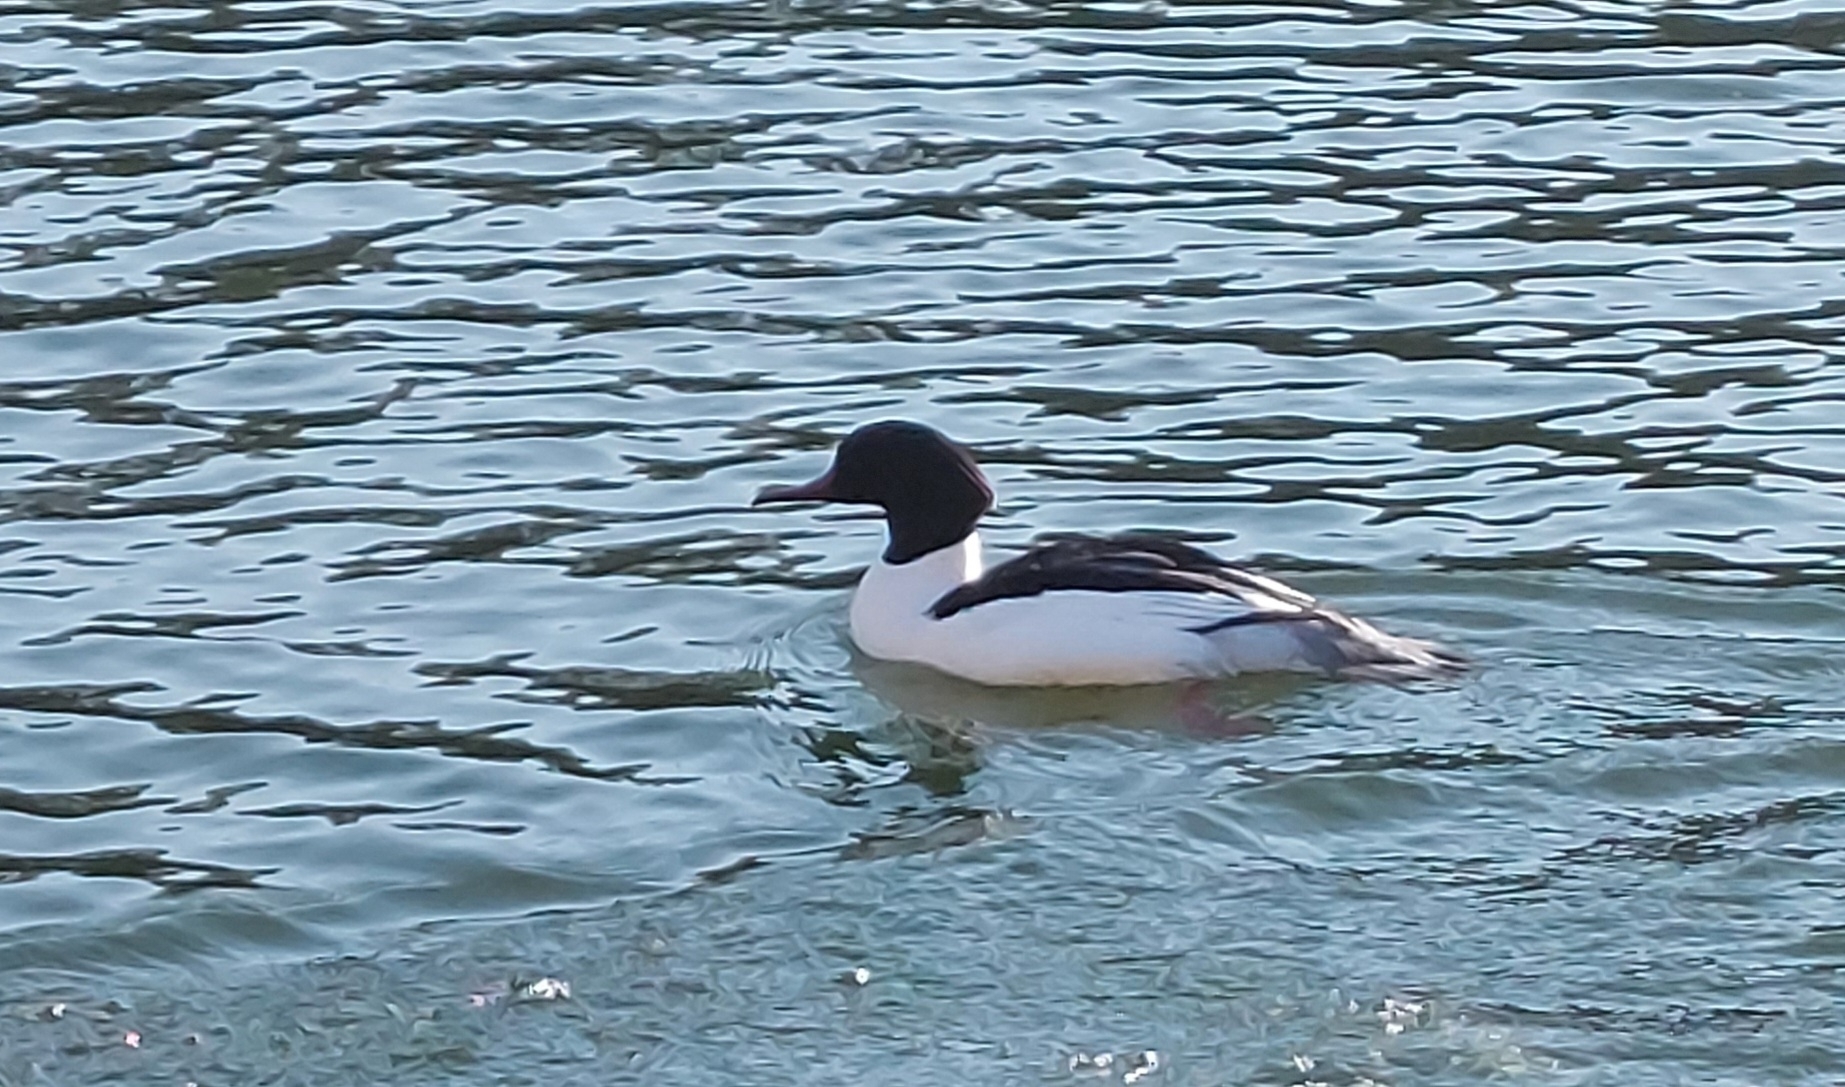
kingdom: Animalia
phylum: Chordata
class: Aves
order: Anseriformes
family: Anatidae
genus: Mergus
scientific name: Mergus merganser
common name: Common merganser
